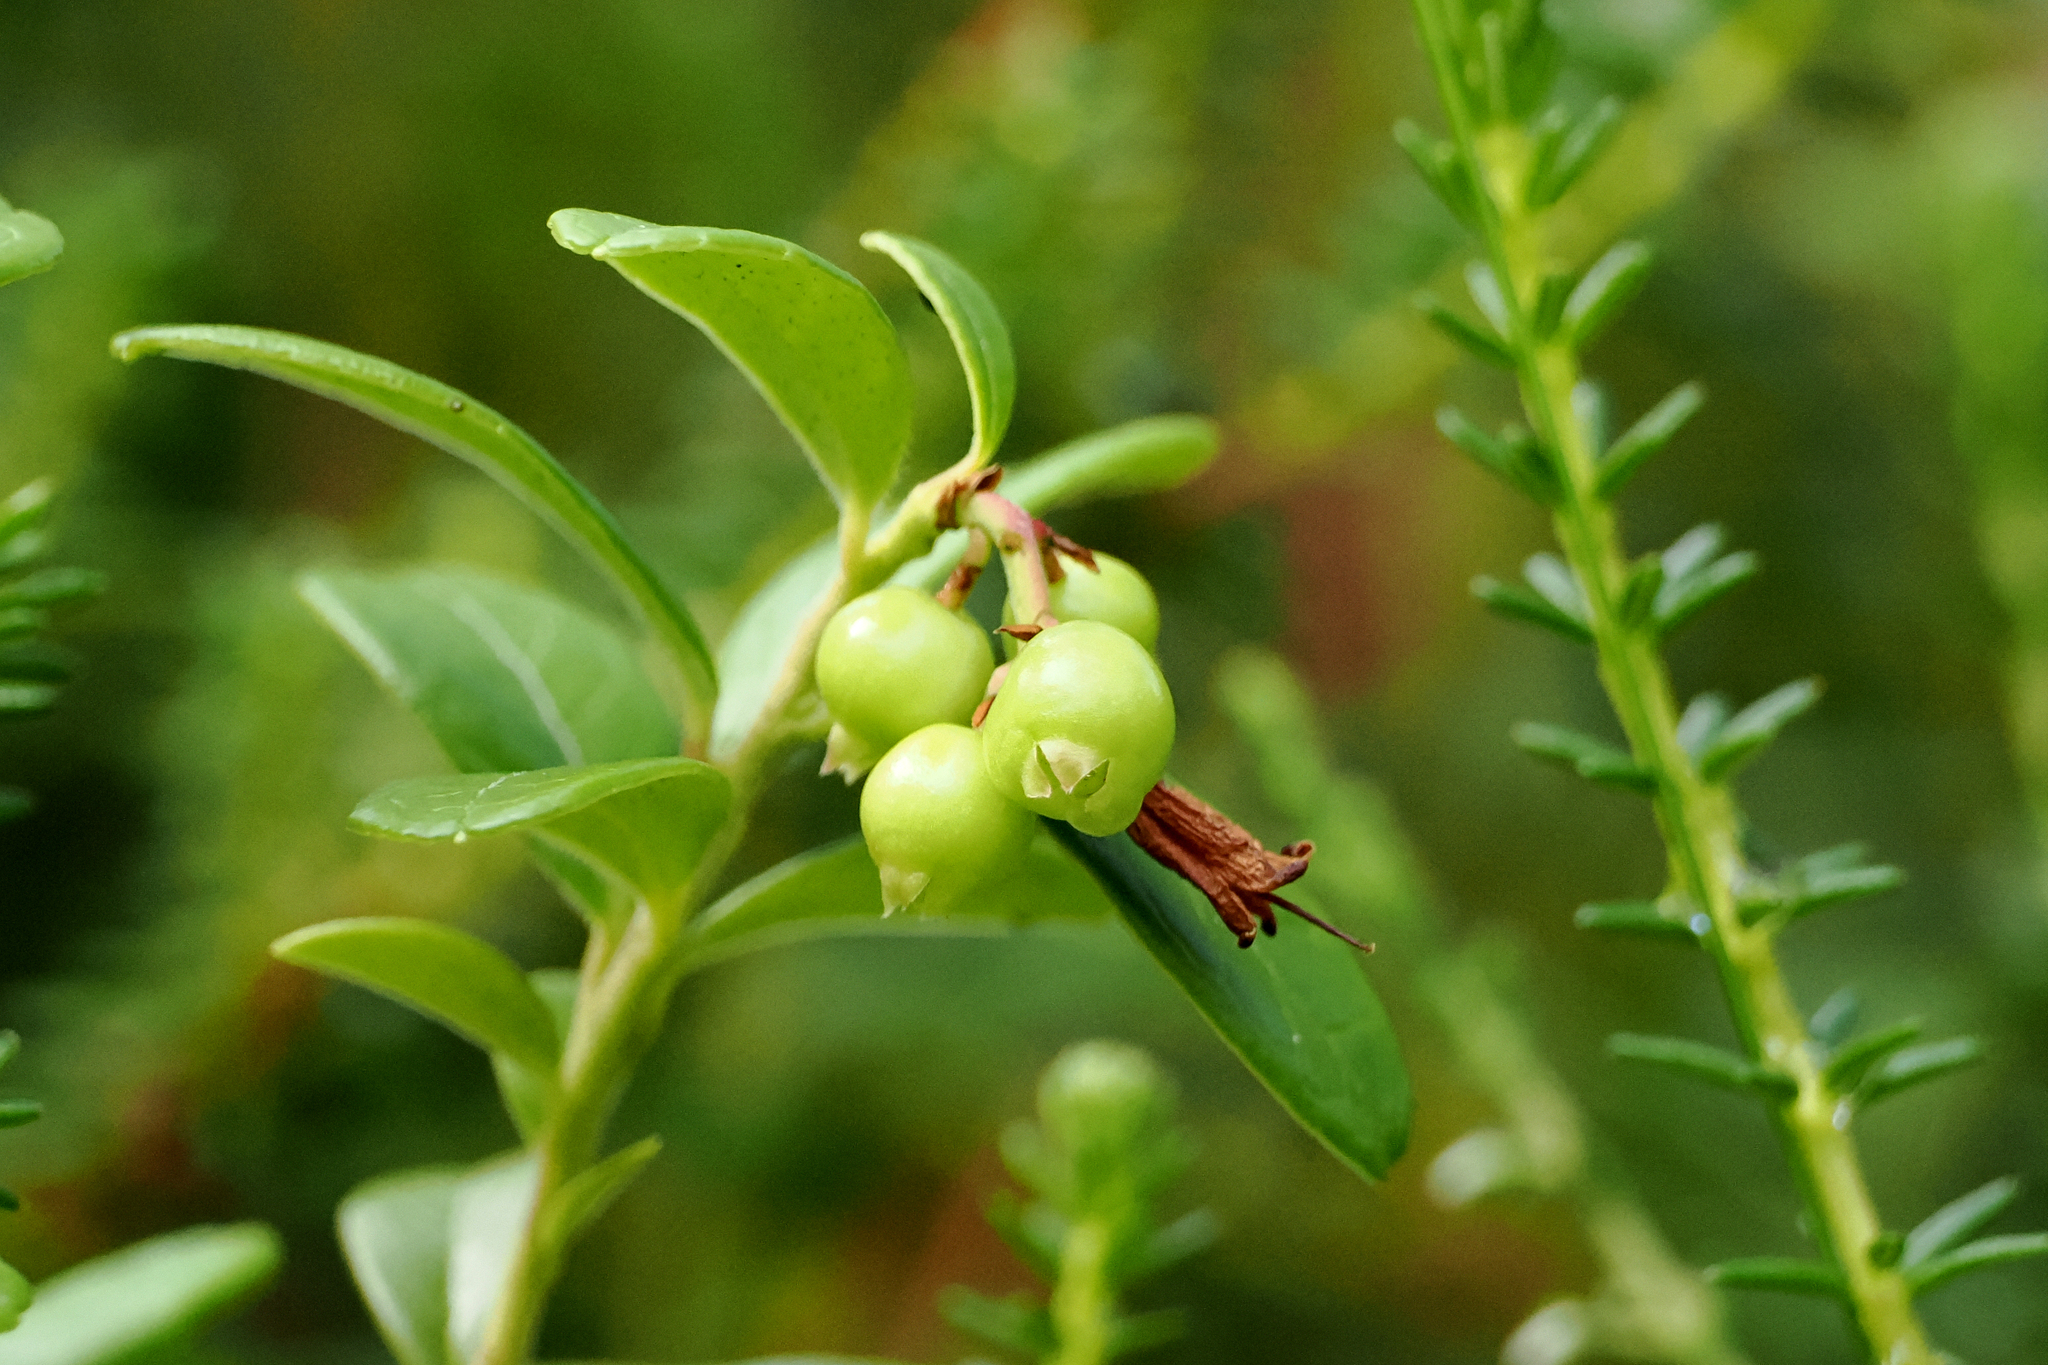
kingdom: Plantae
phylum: Tracheophyta
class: Magnoliopsida
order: Ericales
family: Ericaceae
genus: Vaccinium
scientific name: Vaccinium vitis-idaea
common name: Cowberry
